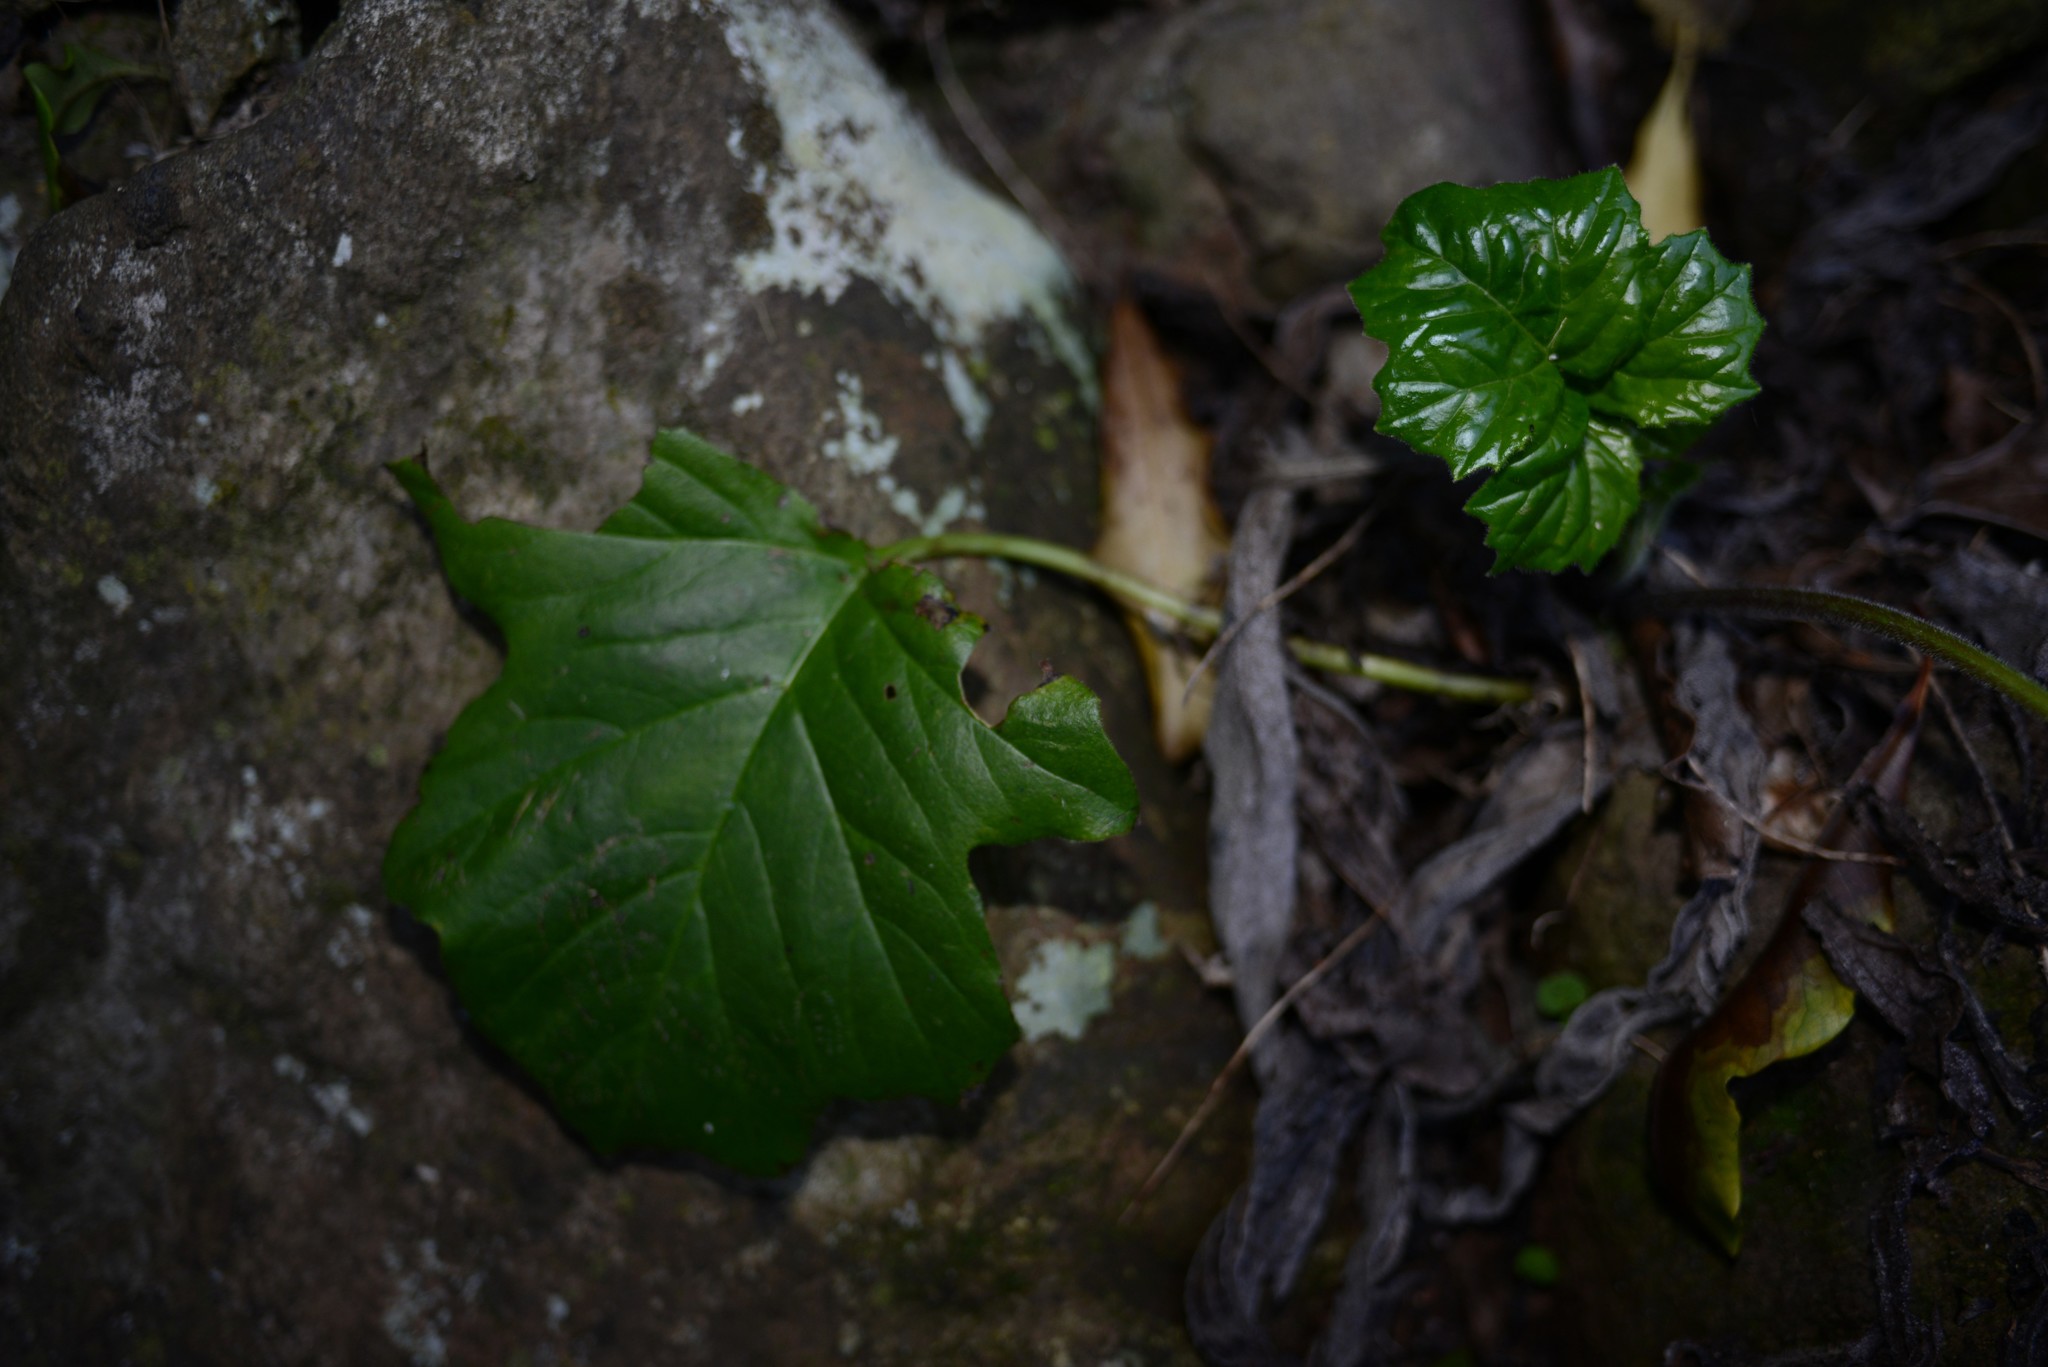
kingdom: Plantae
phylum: Tracheophyta
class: Magnoliopsida
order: Lamiales
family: Acanthaceae
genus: Acanthus
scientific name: Acanthus mollis
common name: Bear's-breech
